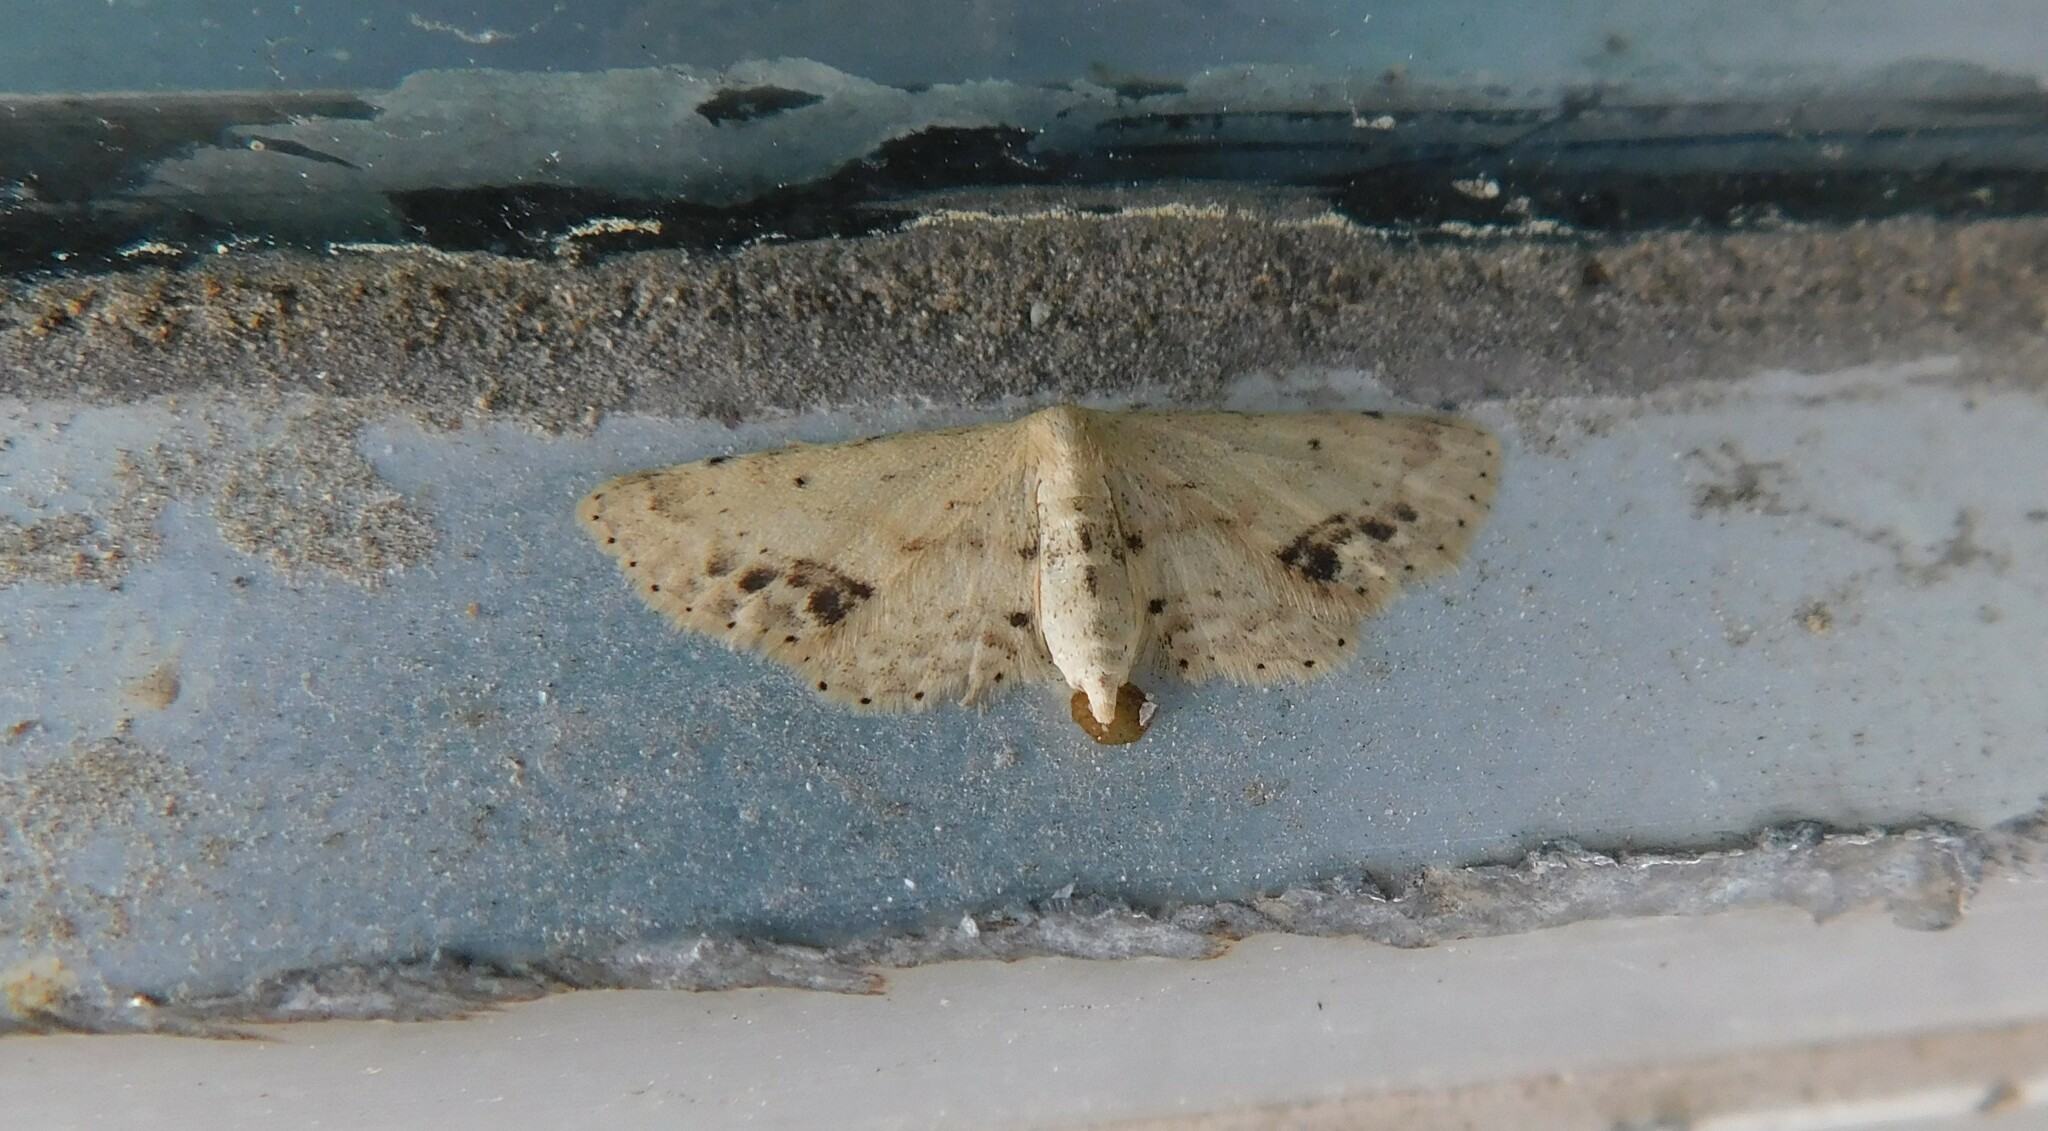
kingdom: Animalia
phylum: Arthropoda
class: Insecta
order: Lepidoptera
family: Geometridae
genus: Idaea
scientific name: Idaea dimidiata
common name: Single-dotted wave
